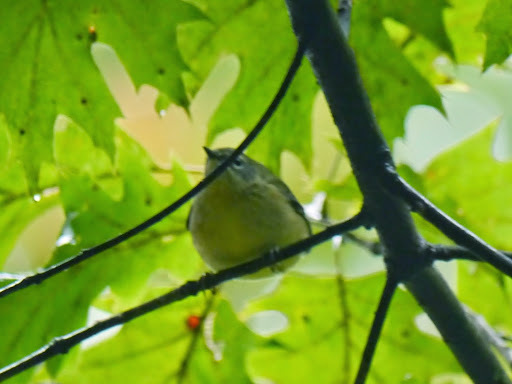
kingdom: Animalia
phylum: Chordata
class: Aves
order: Passeriformes
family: Parulidae
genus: Setophaga
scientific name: Setophaga caerulescens
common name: Black-throated blue warbler
